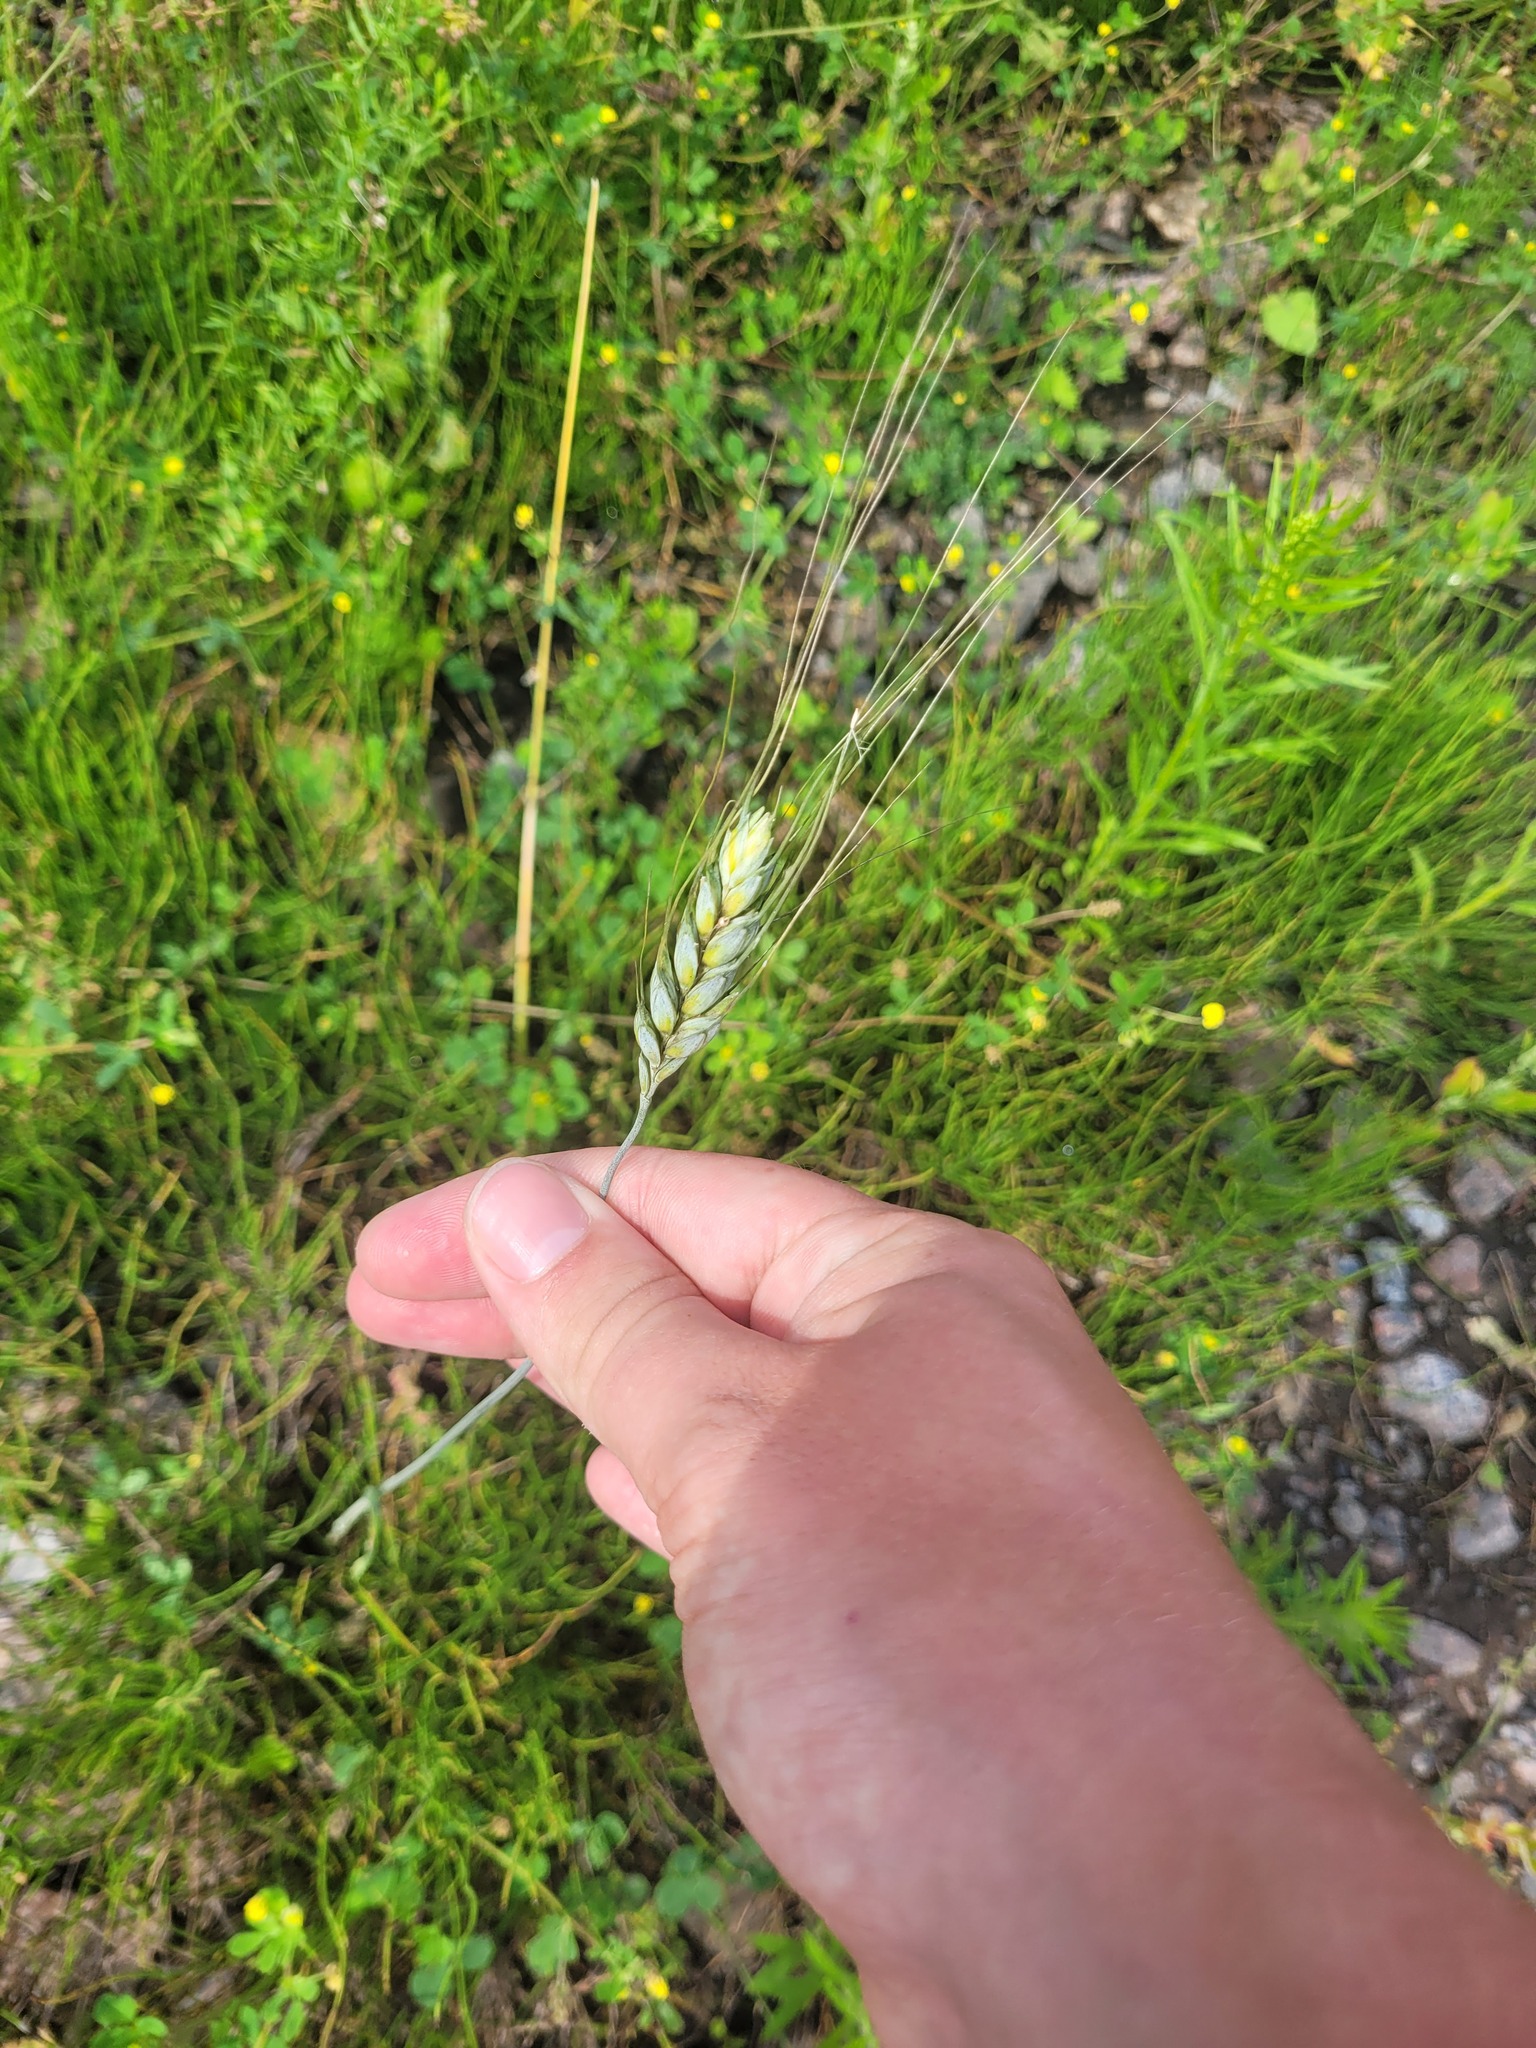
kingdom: Plantae
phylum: Tracheophyta
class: Liliopsida
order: Poales
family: Poaceae
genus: Triticum
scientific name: Triticum aestivum
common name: Common wheat
